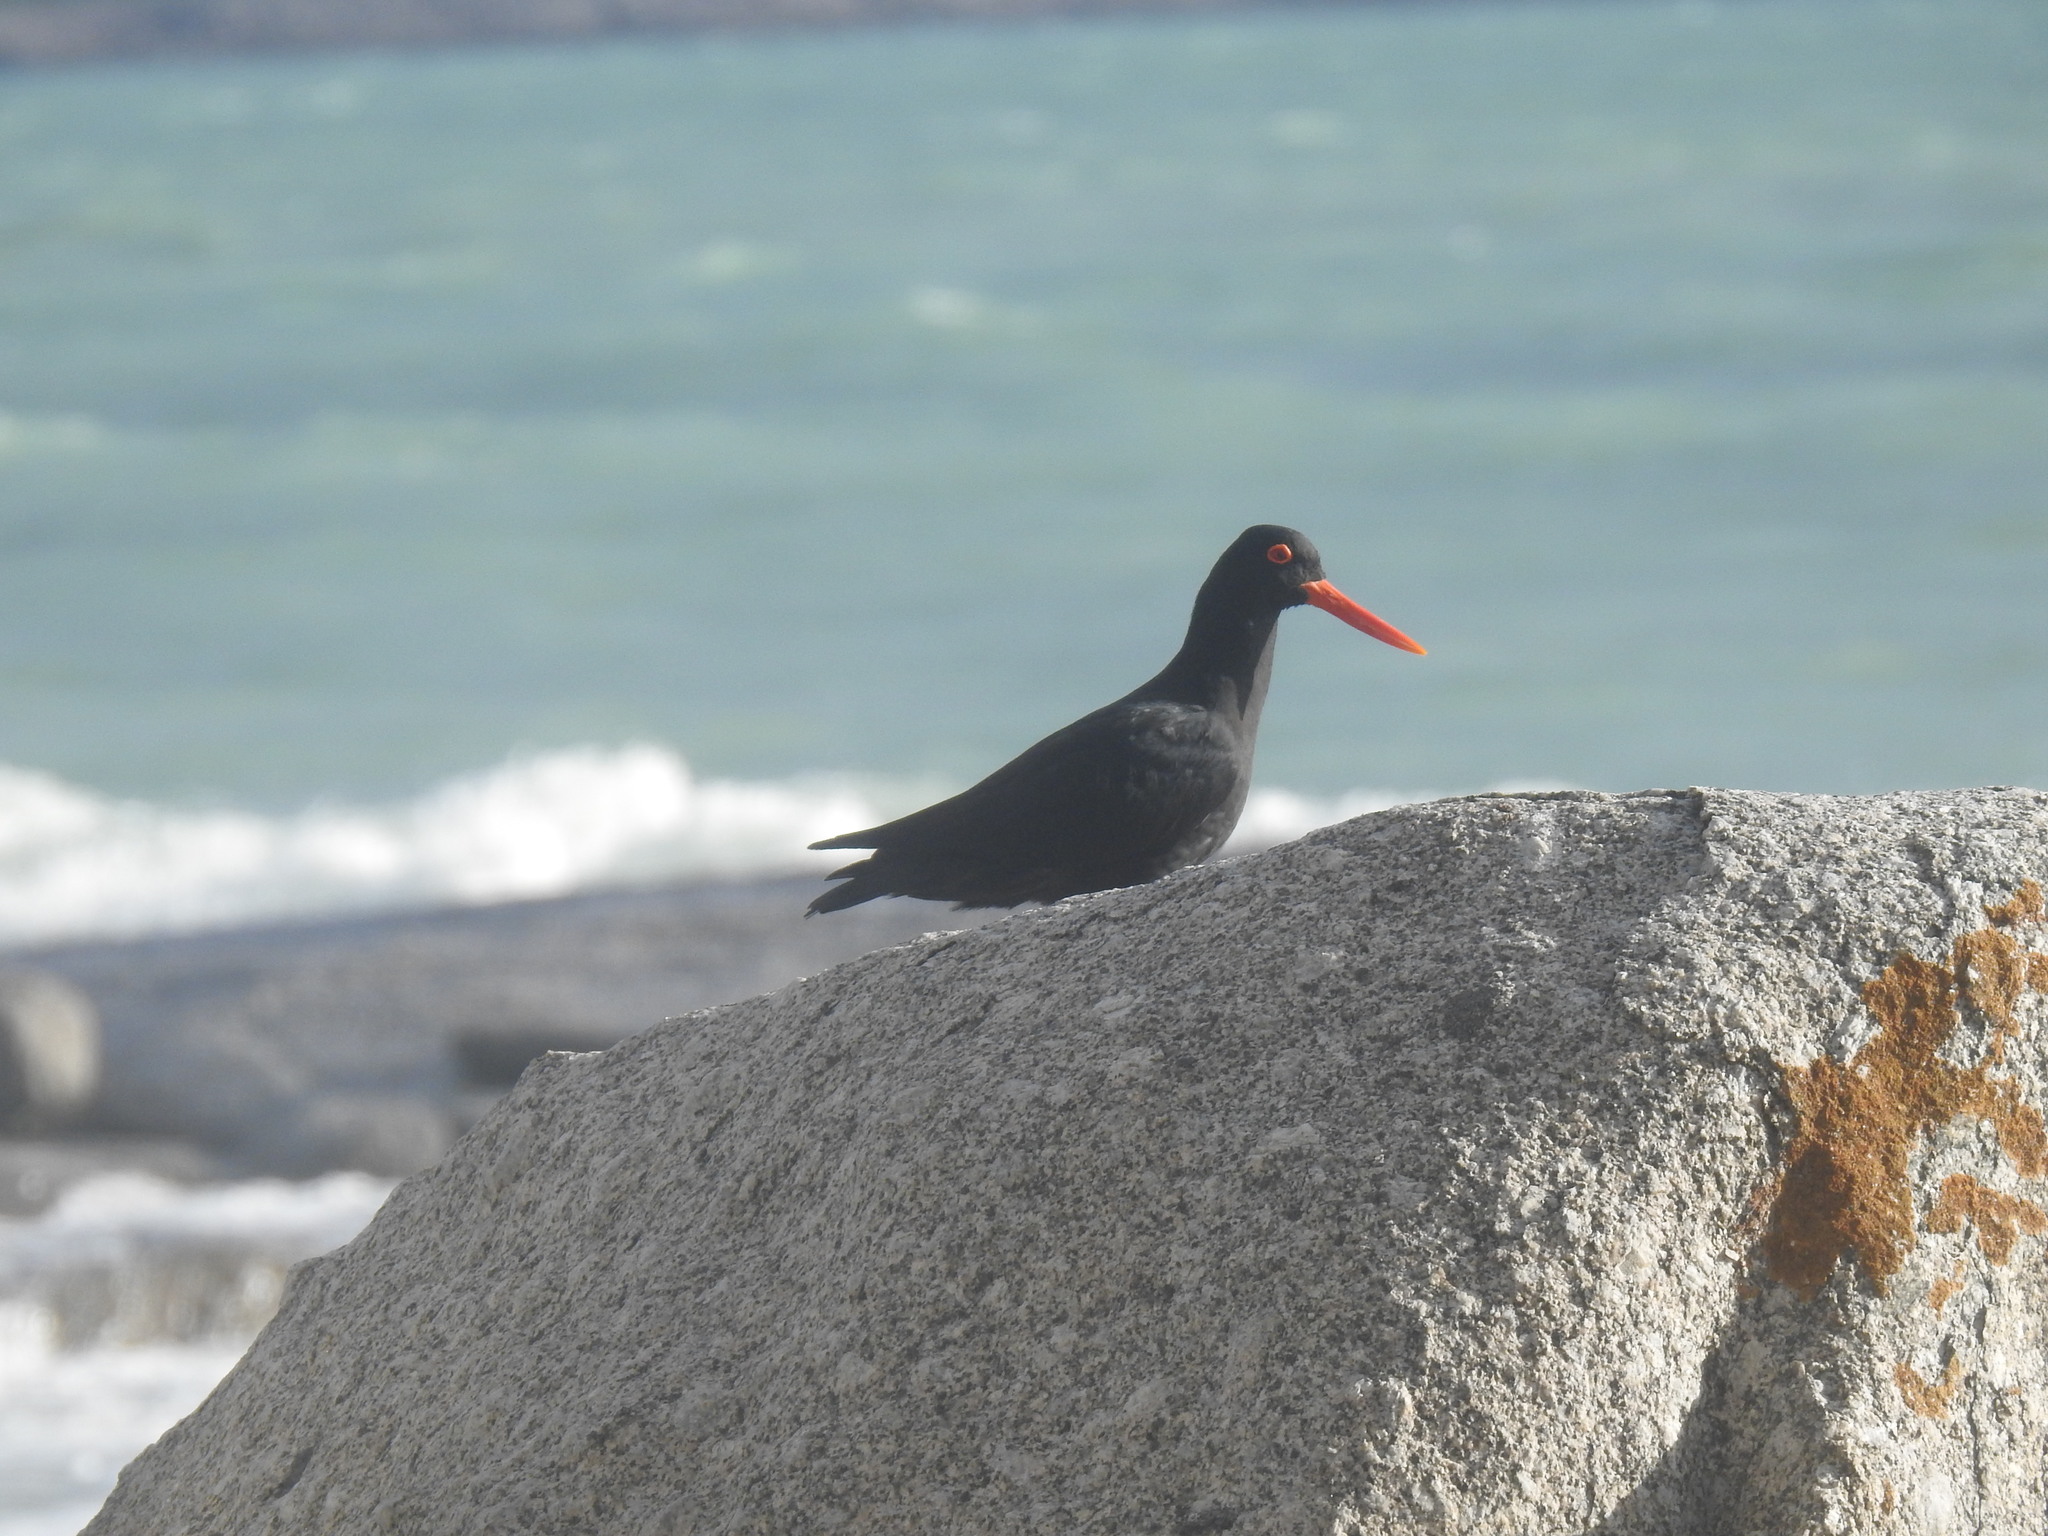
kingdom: Animalia
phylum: Chordata
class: Aves
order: Charadriiformes
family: Haematopodidae
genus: Haematopus
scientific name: Haematopus moquini
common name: African oystercatcher
